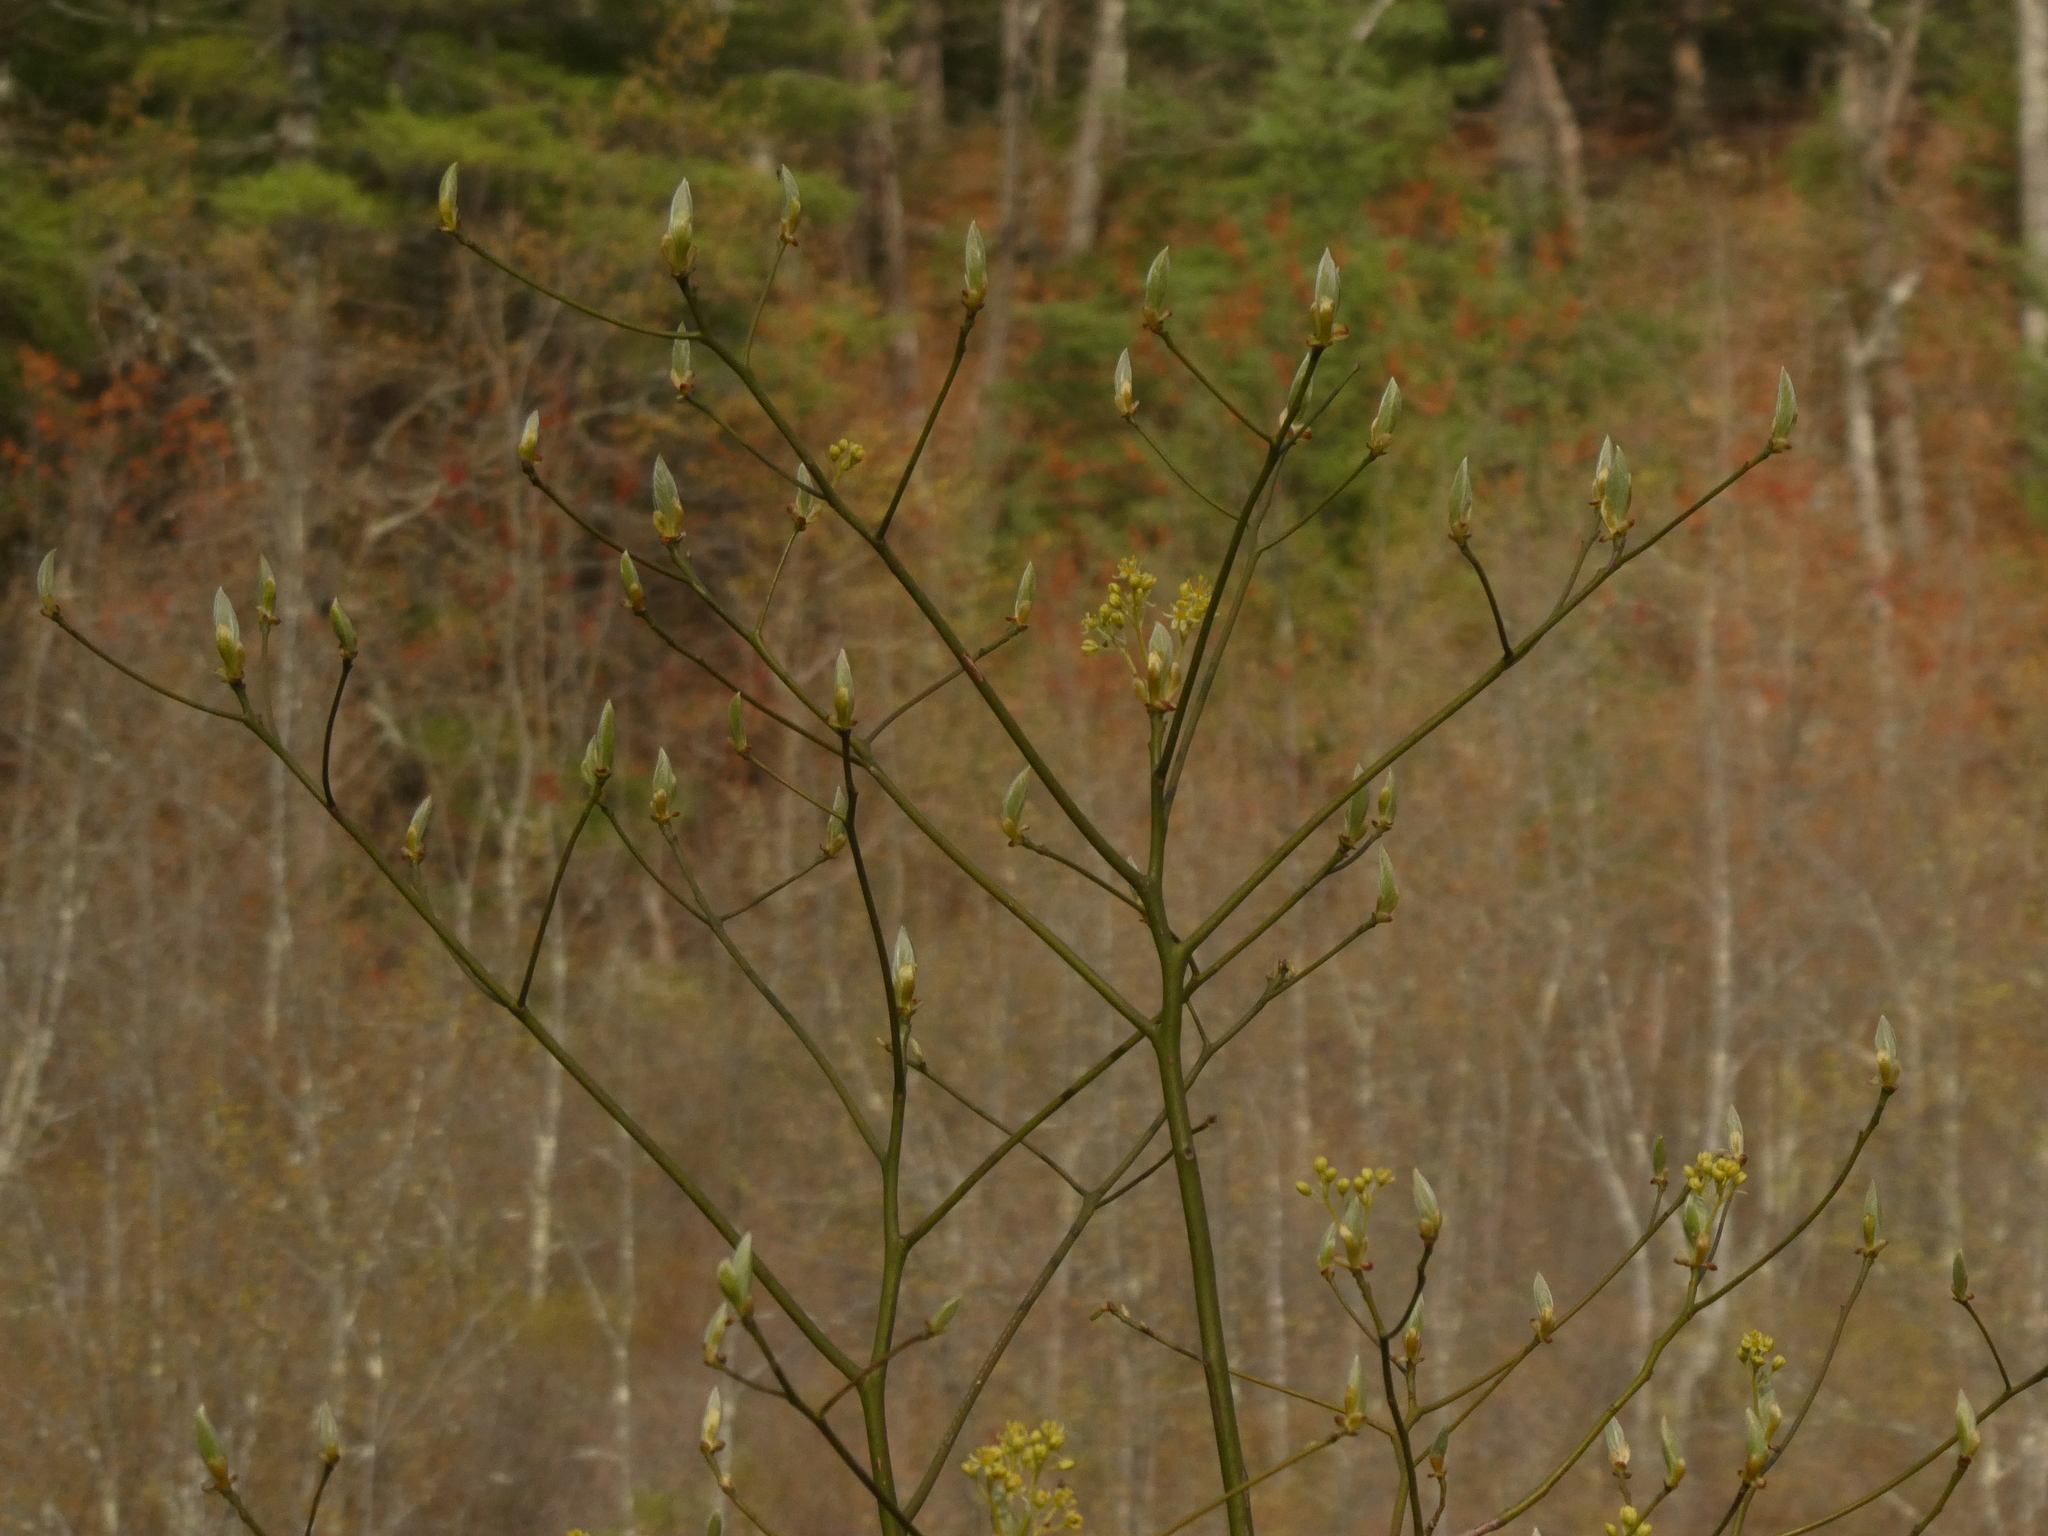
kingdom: Plantae
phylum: Tracheophyta
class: Magnoliopsida
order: Laurales
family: Lauraceae
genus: Sassafras
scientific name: Sassafras albidum
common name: Sassafras
